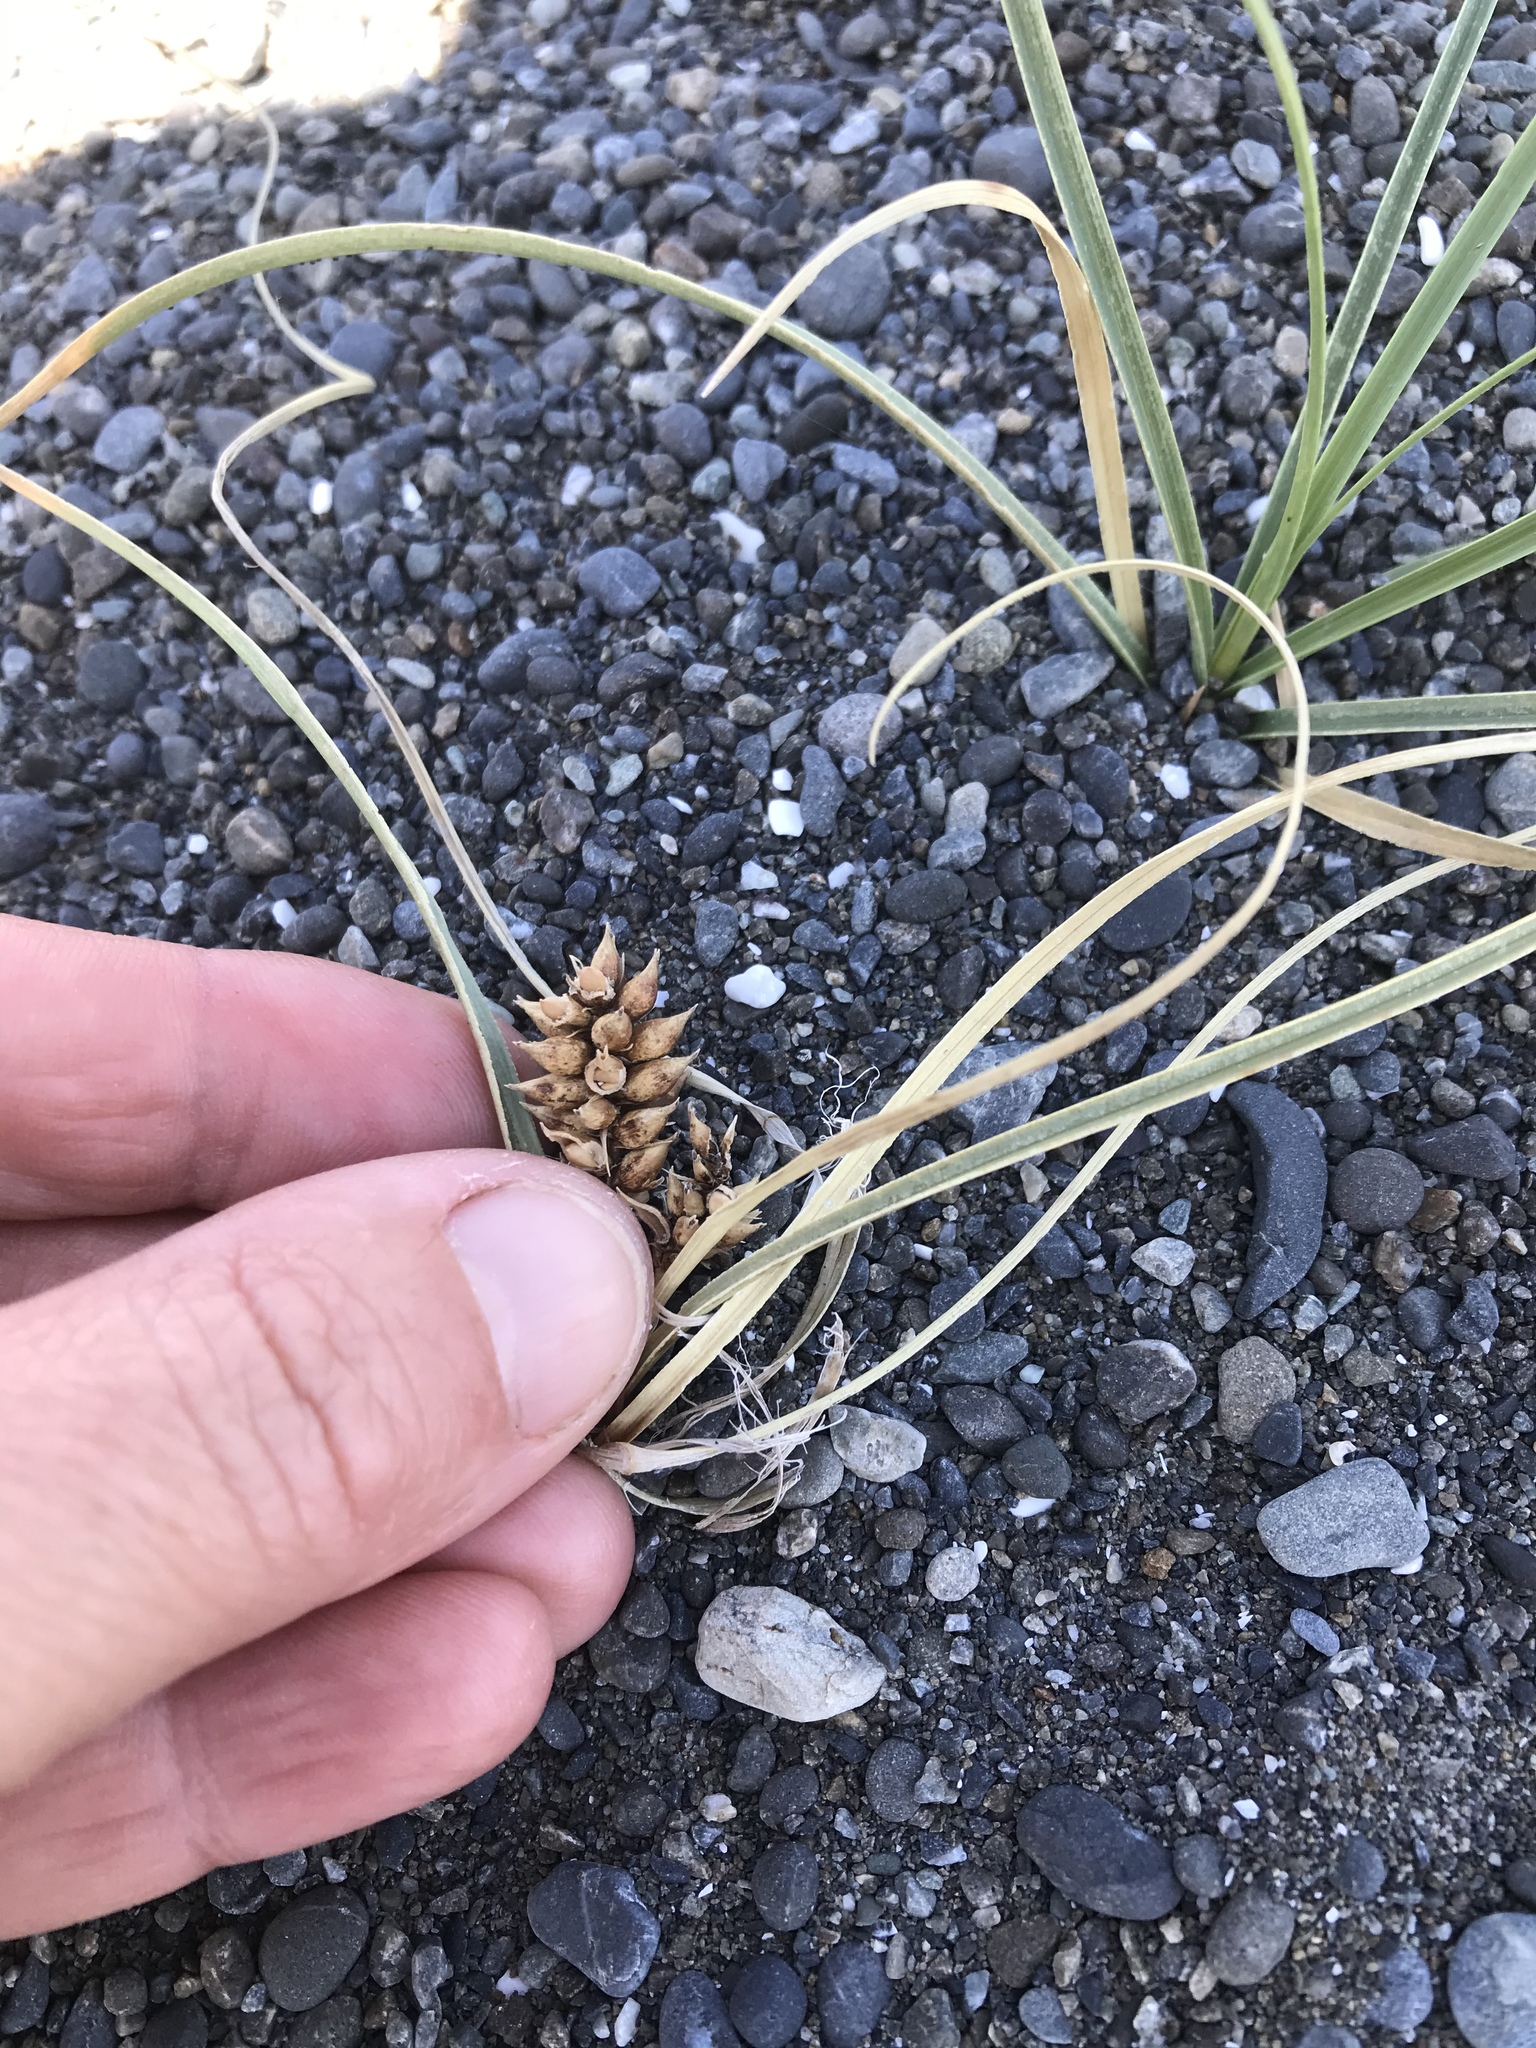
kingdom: Plantae
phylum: Tracheophyta
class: Liliopsida
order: Poales
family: Cyperaceae
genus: Carex
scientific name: Carex pumila
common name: Dwarf sedge
